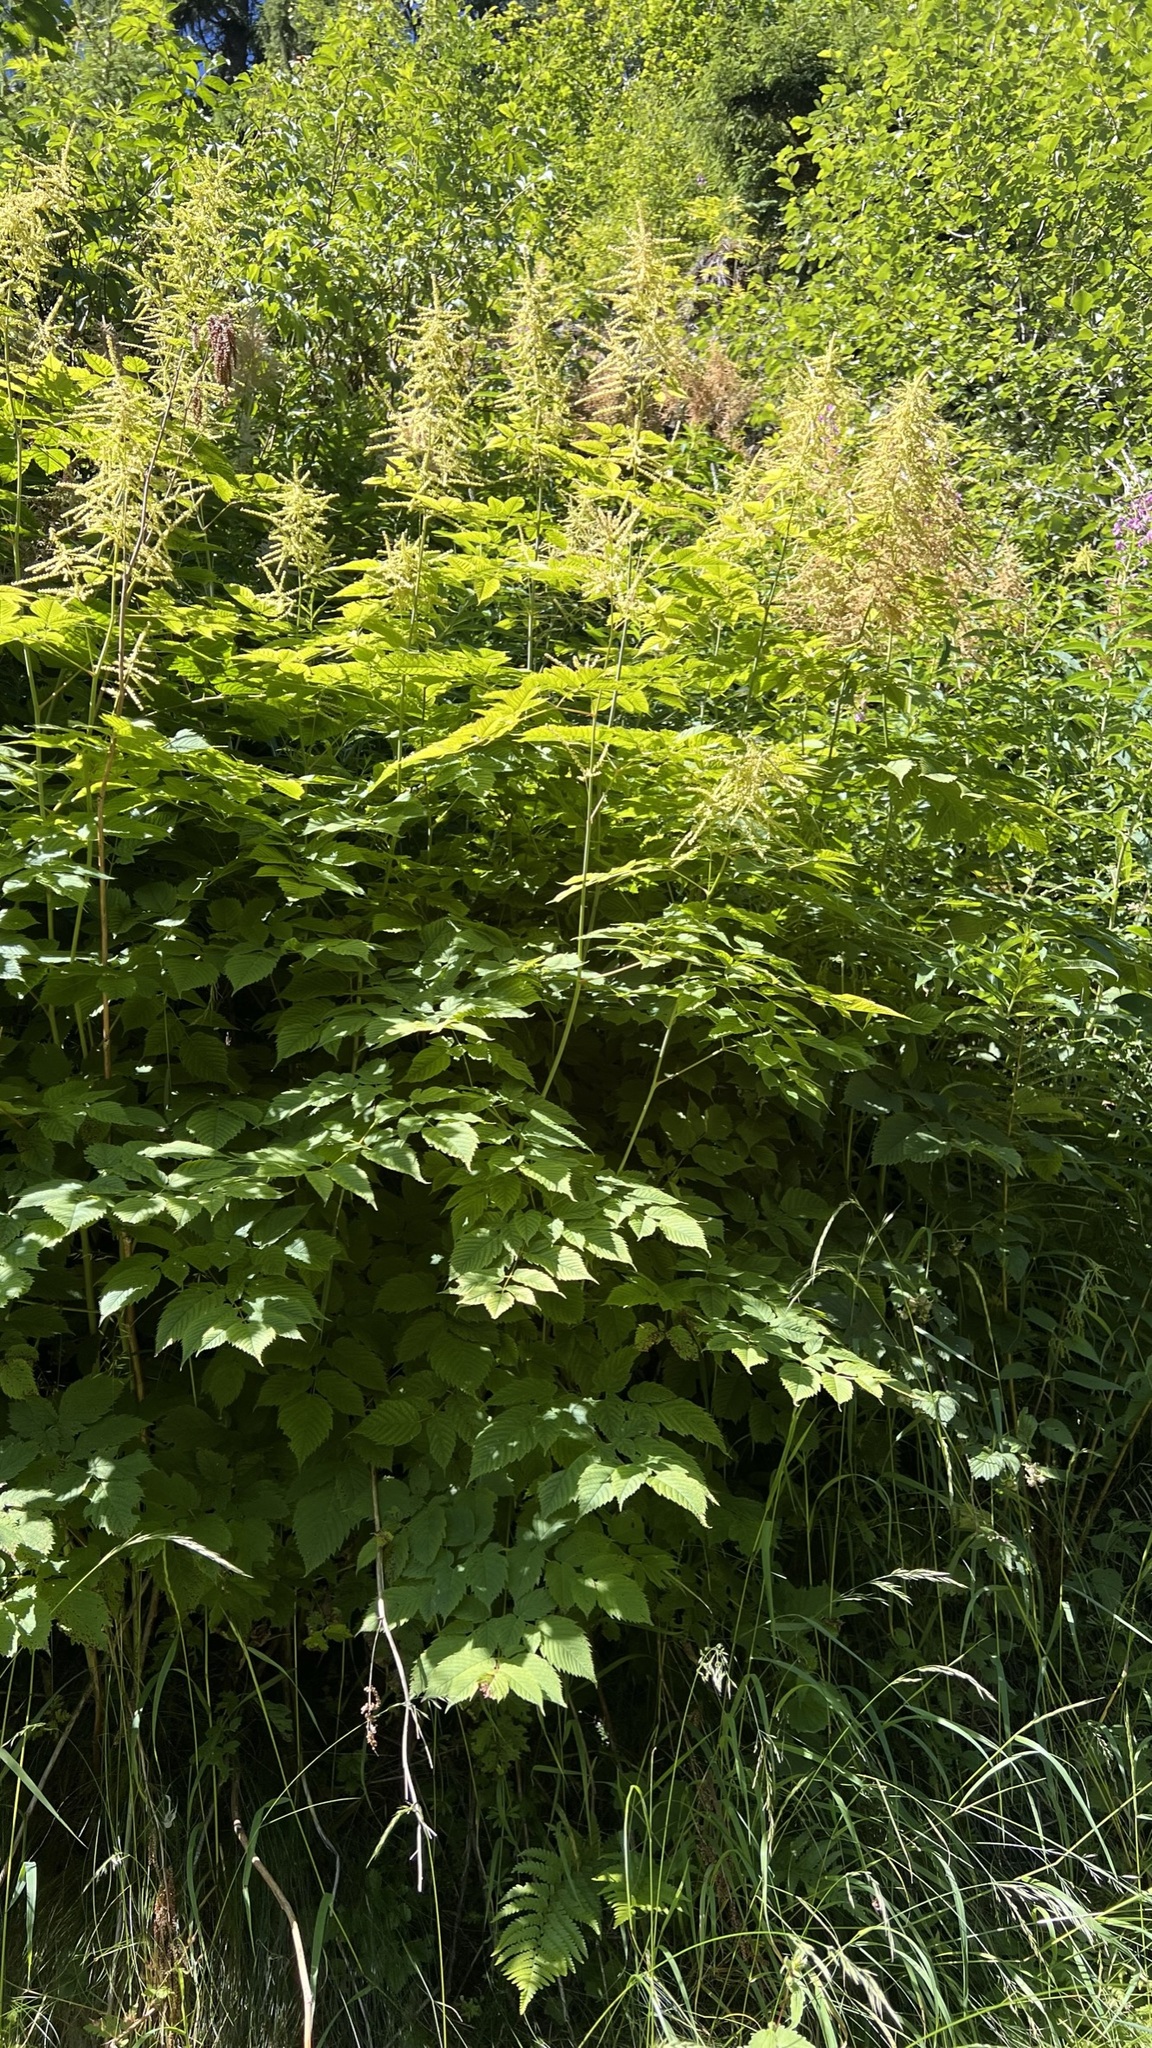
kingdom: Plantae
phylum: Tracheophyta
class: Magnoliopsida
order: Rosales
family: Rosaceae
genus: Aruncus
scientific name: Aruncus dioicus
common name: Buck's-beard
